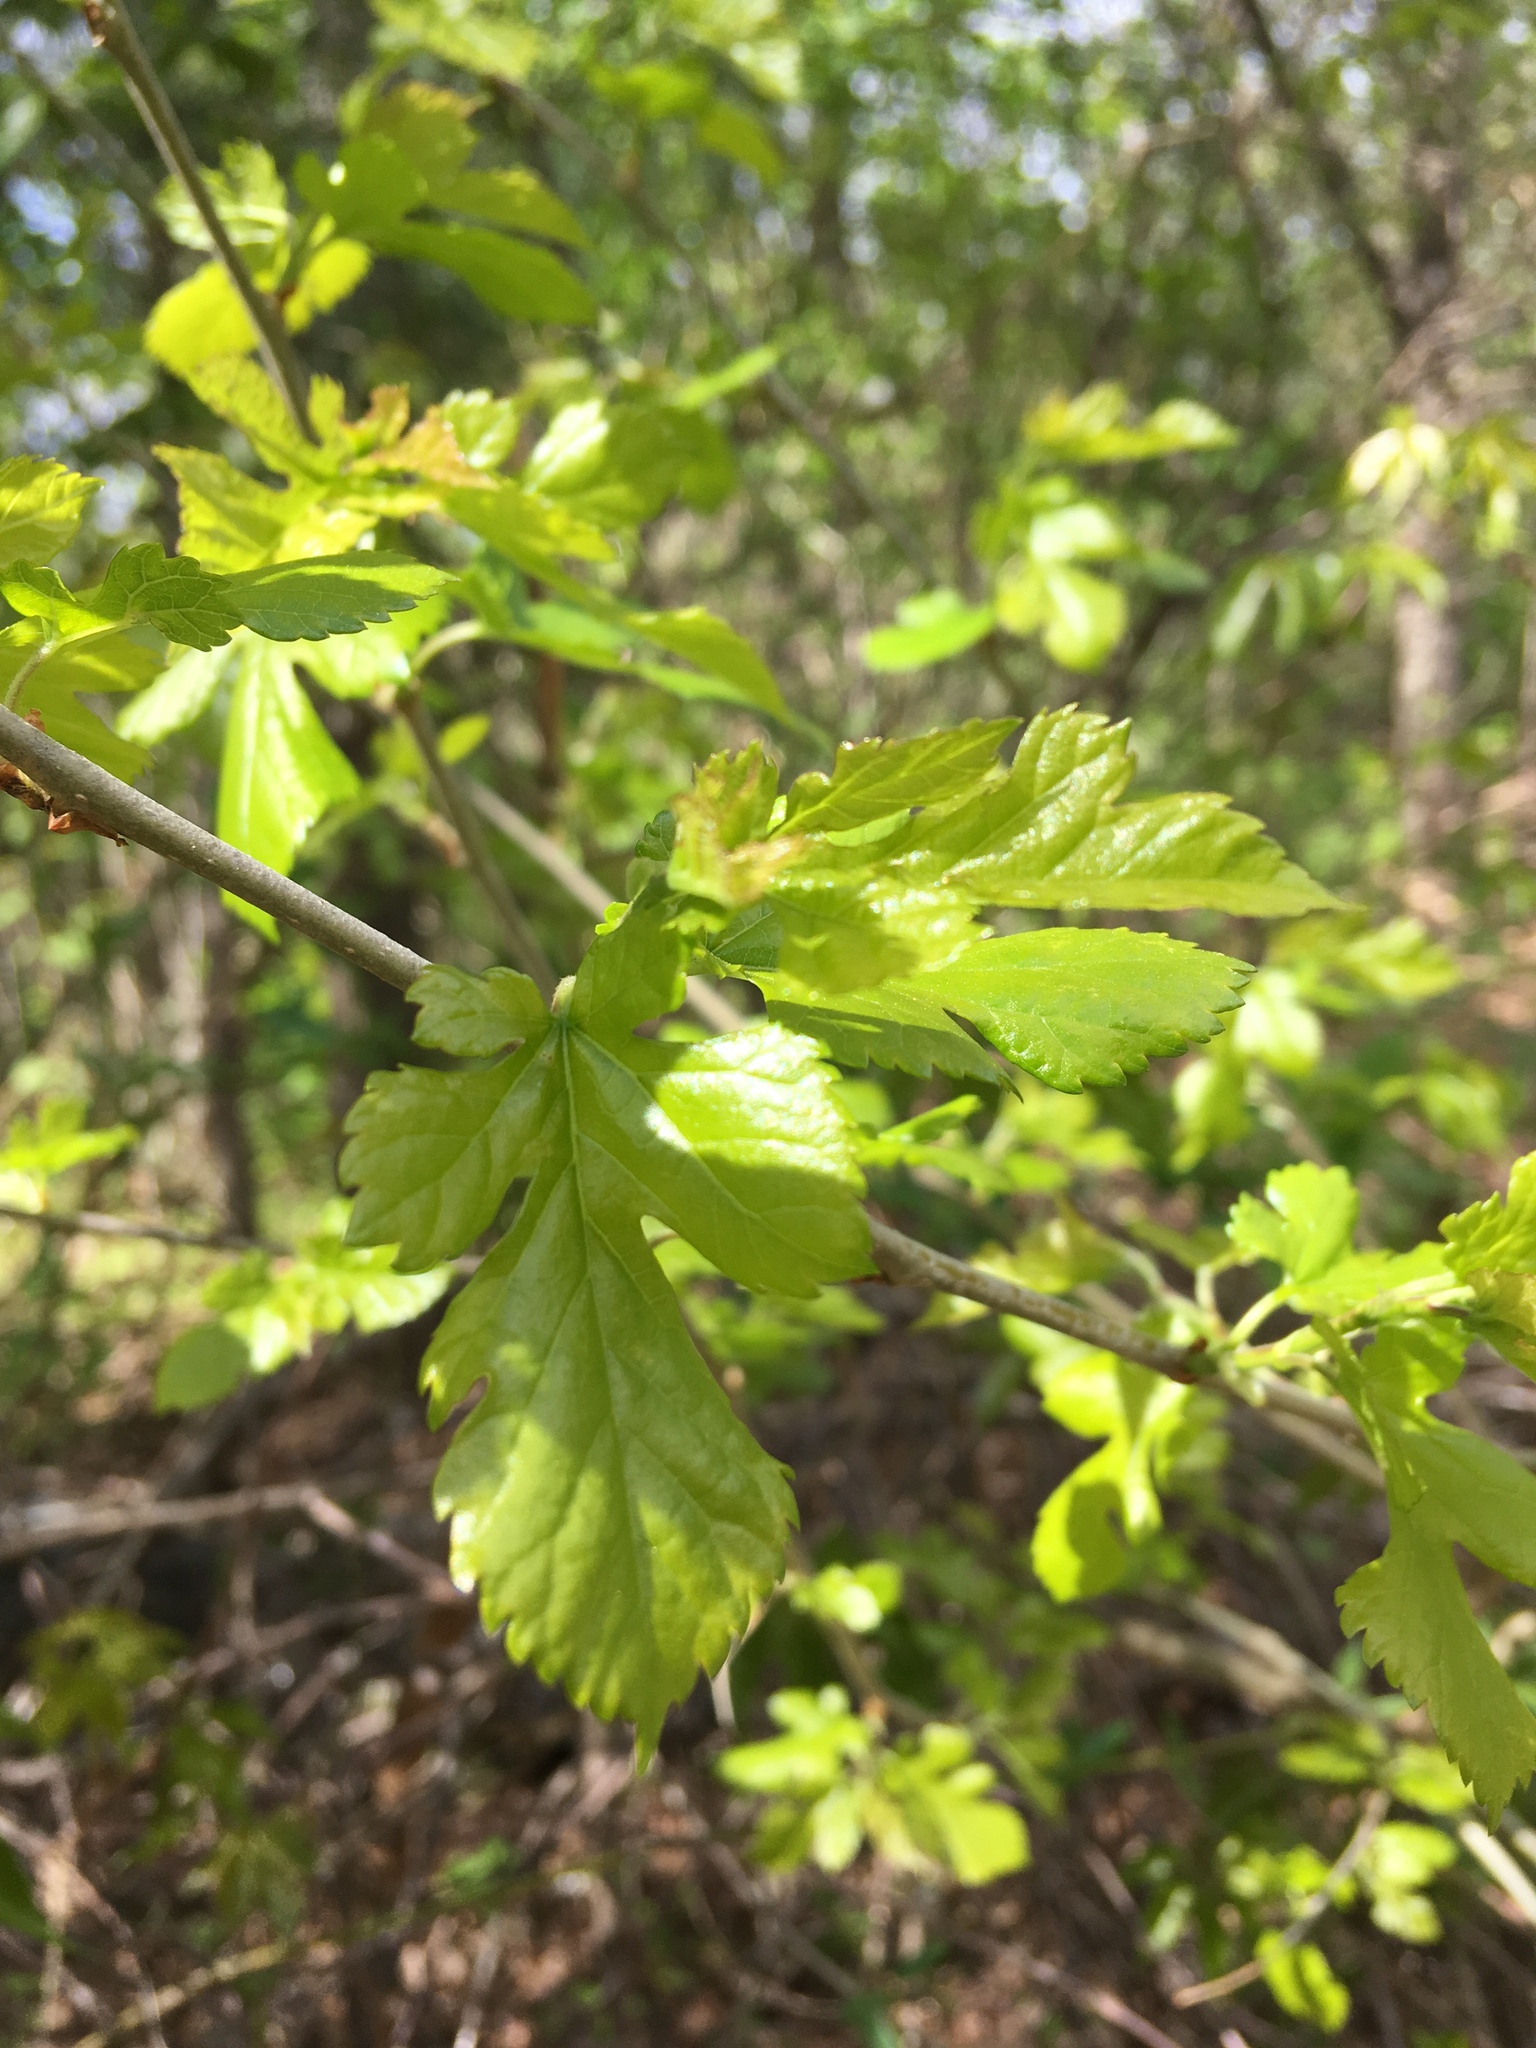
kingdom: Plantae
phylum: Tracheophyta
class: Magnoliopsida
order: Rosales
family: Moraceae
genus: Morus
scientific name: Morus alba
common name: White mulberry
